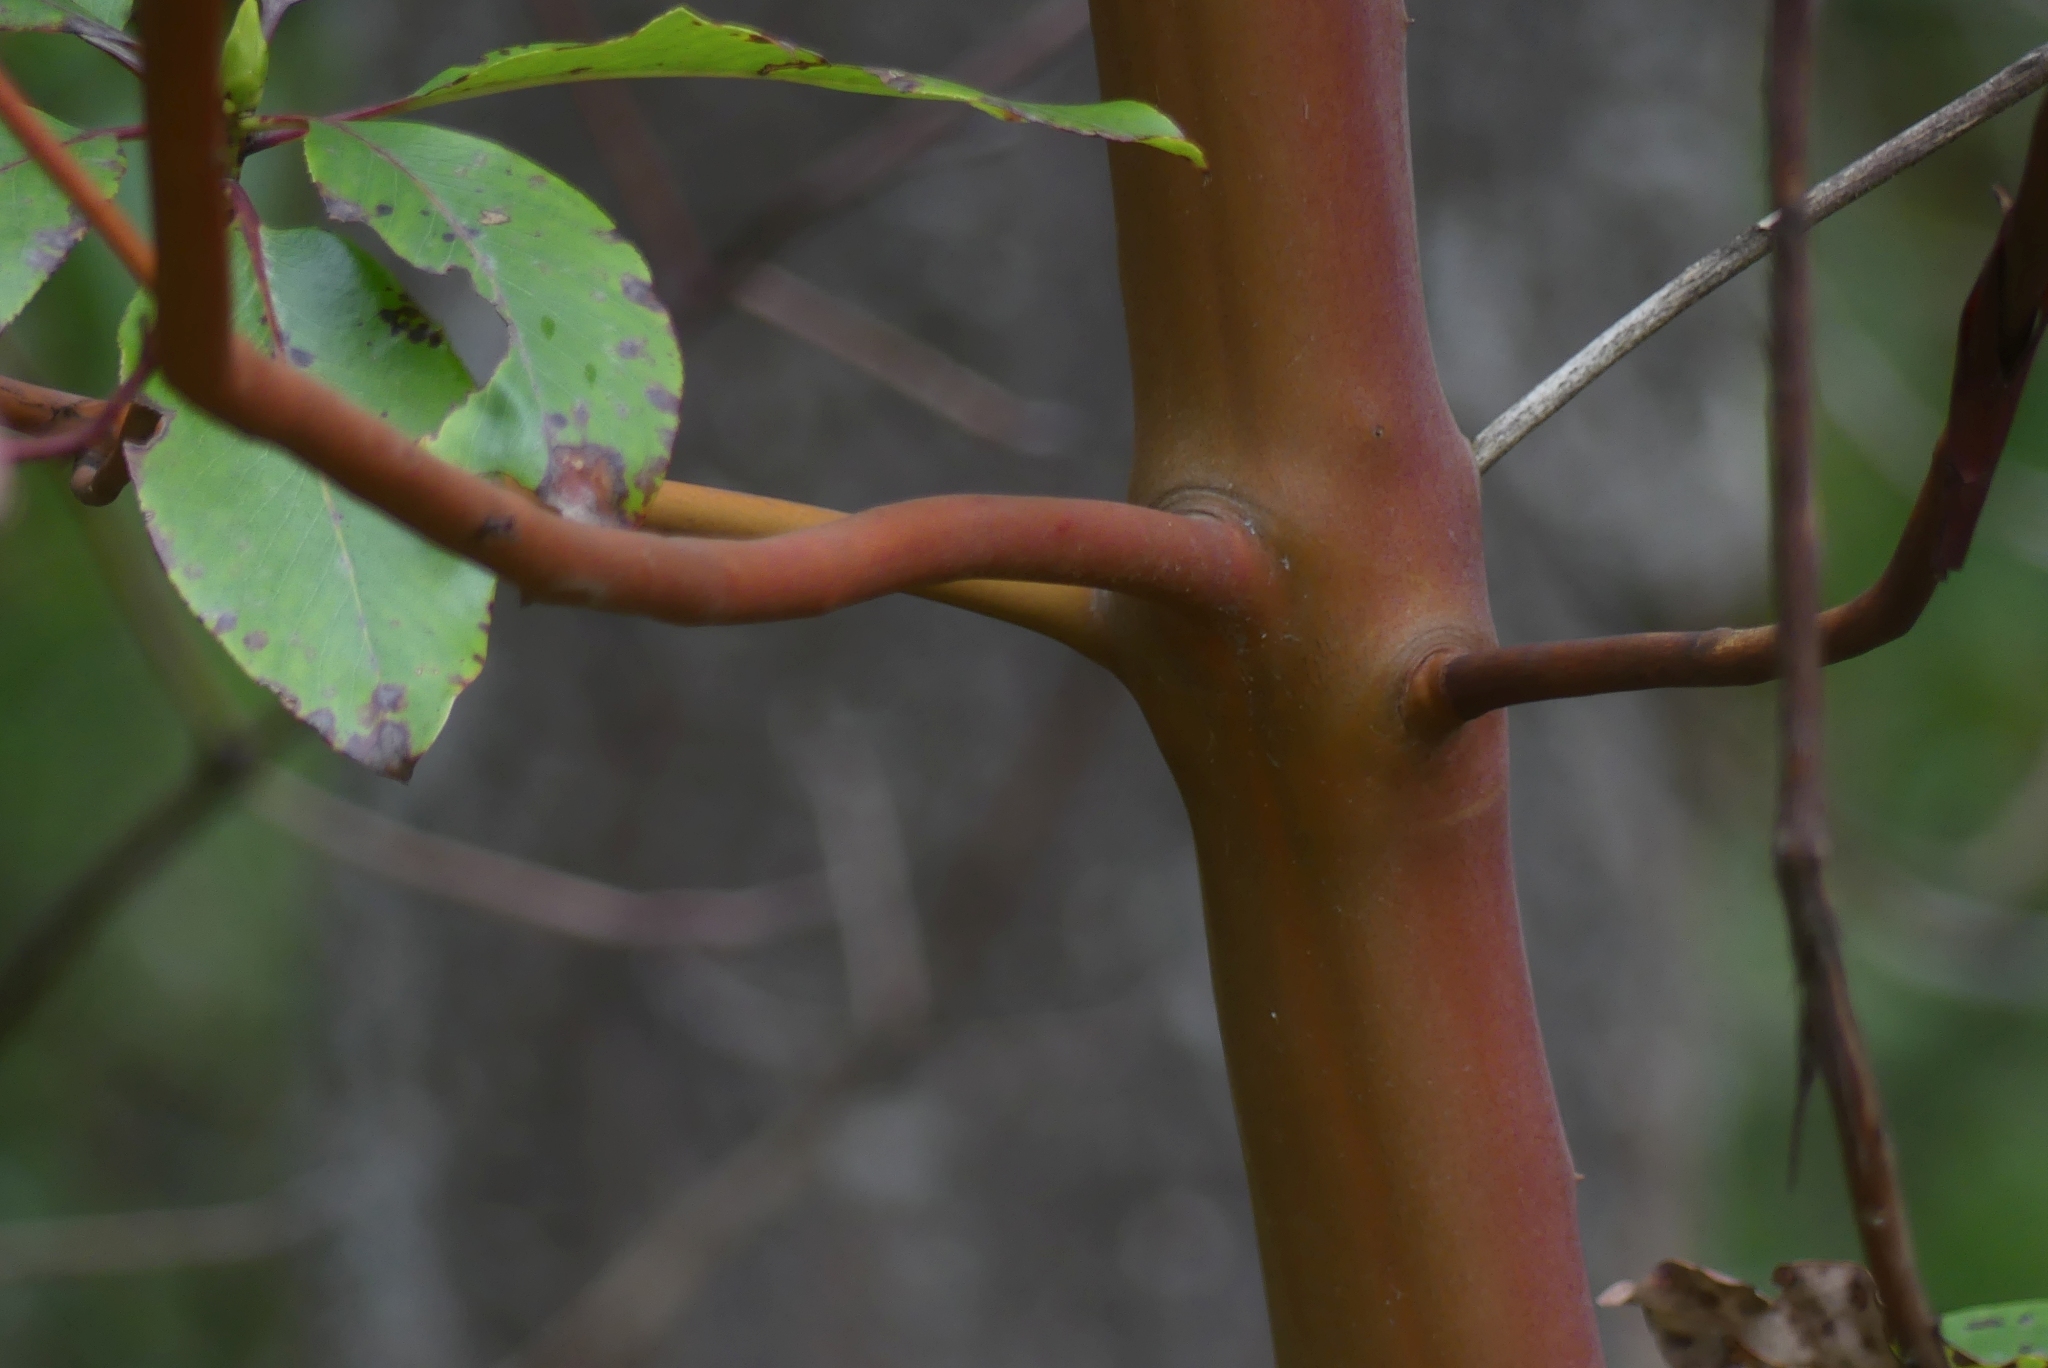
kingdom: Plantae
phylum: Tracheophyta
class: Magnoliopsida
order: Ericales
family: Ericaceae
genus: Arbutus
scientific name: Arbutus menziesii
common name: Pacific madrone
